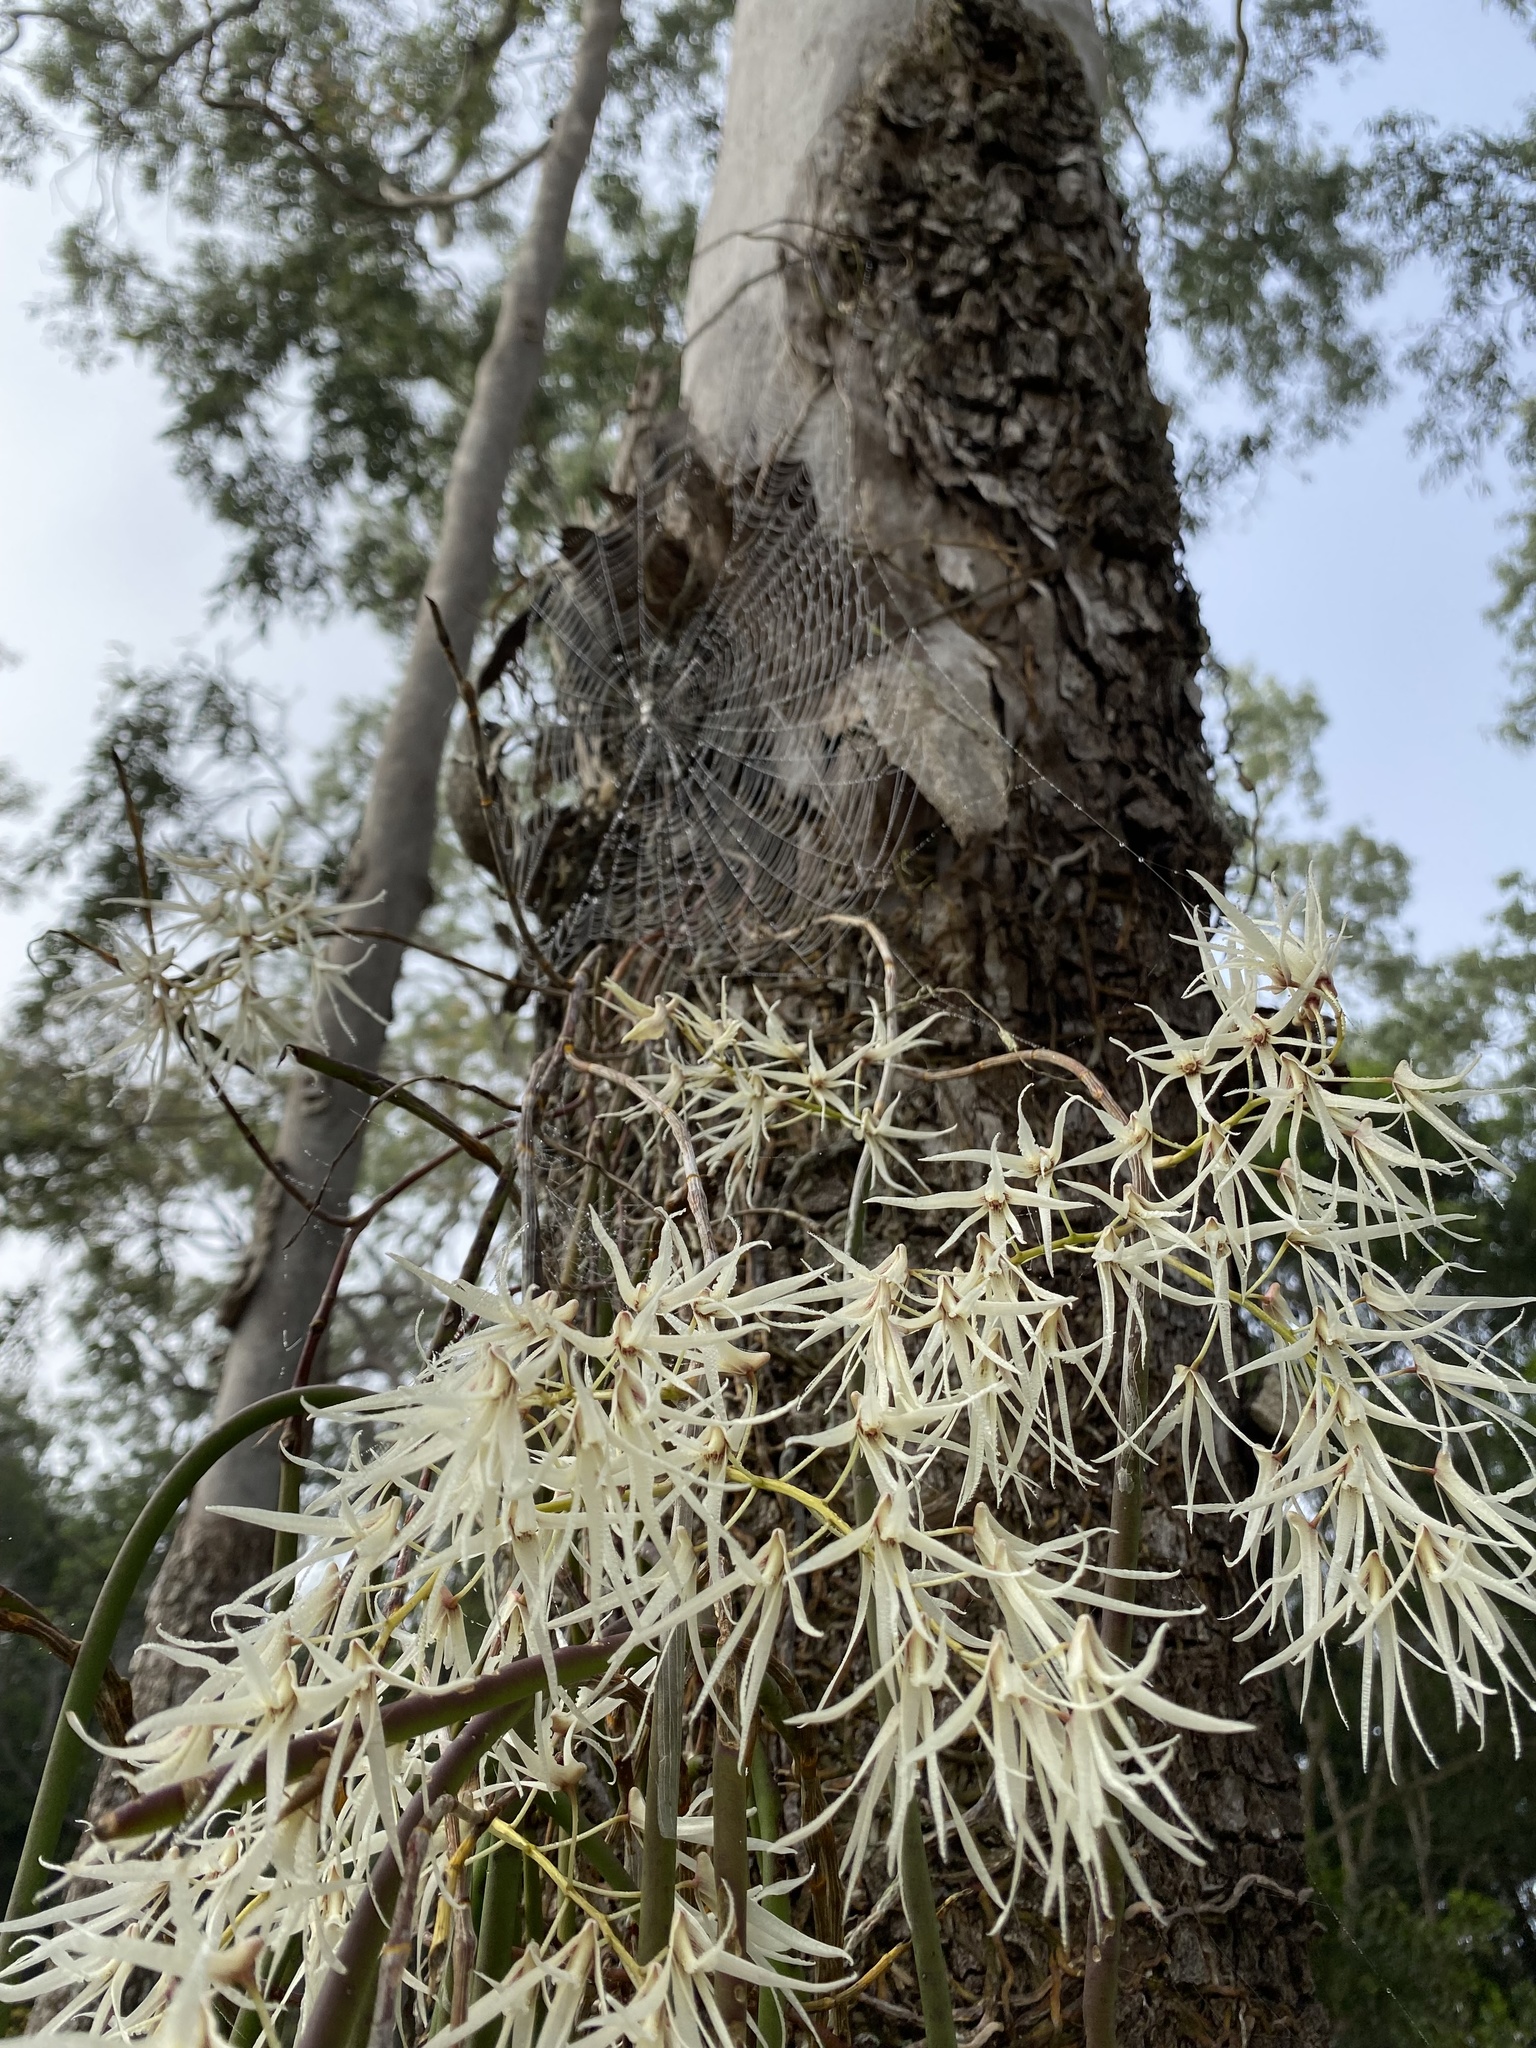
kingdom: Plantae
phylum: Tracheophyta
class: Liliopsida
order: Asparagales
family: Orchidaceae
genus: Dendrobium
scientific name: Dendrobium teretifolium
